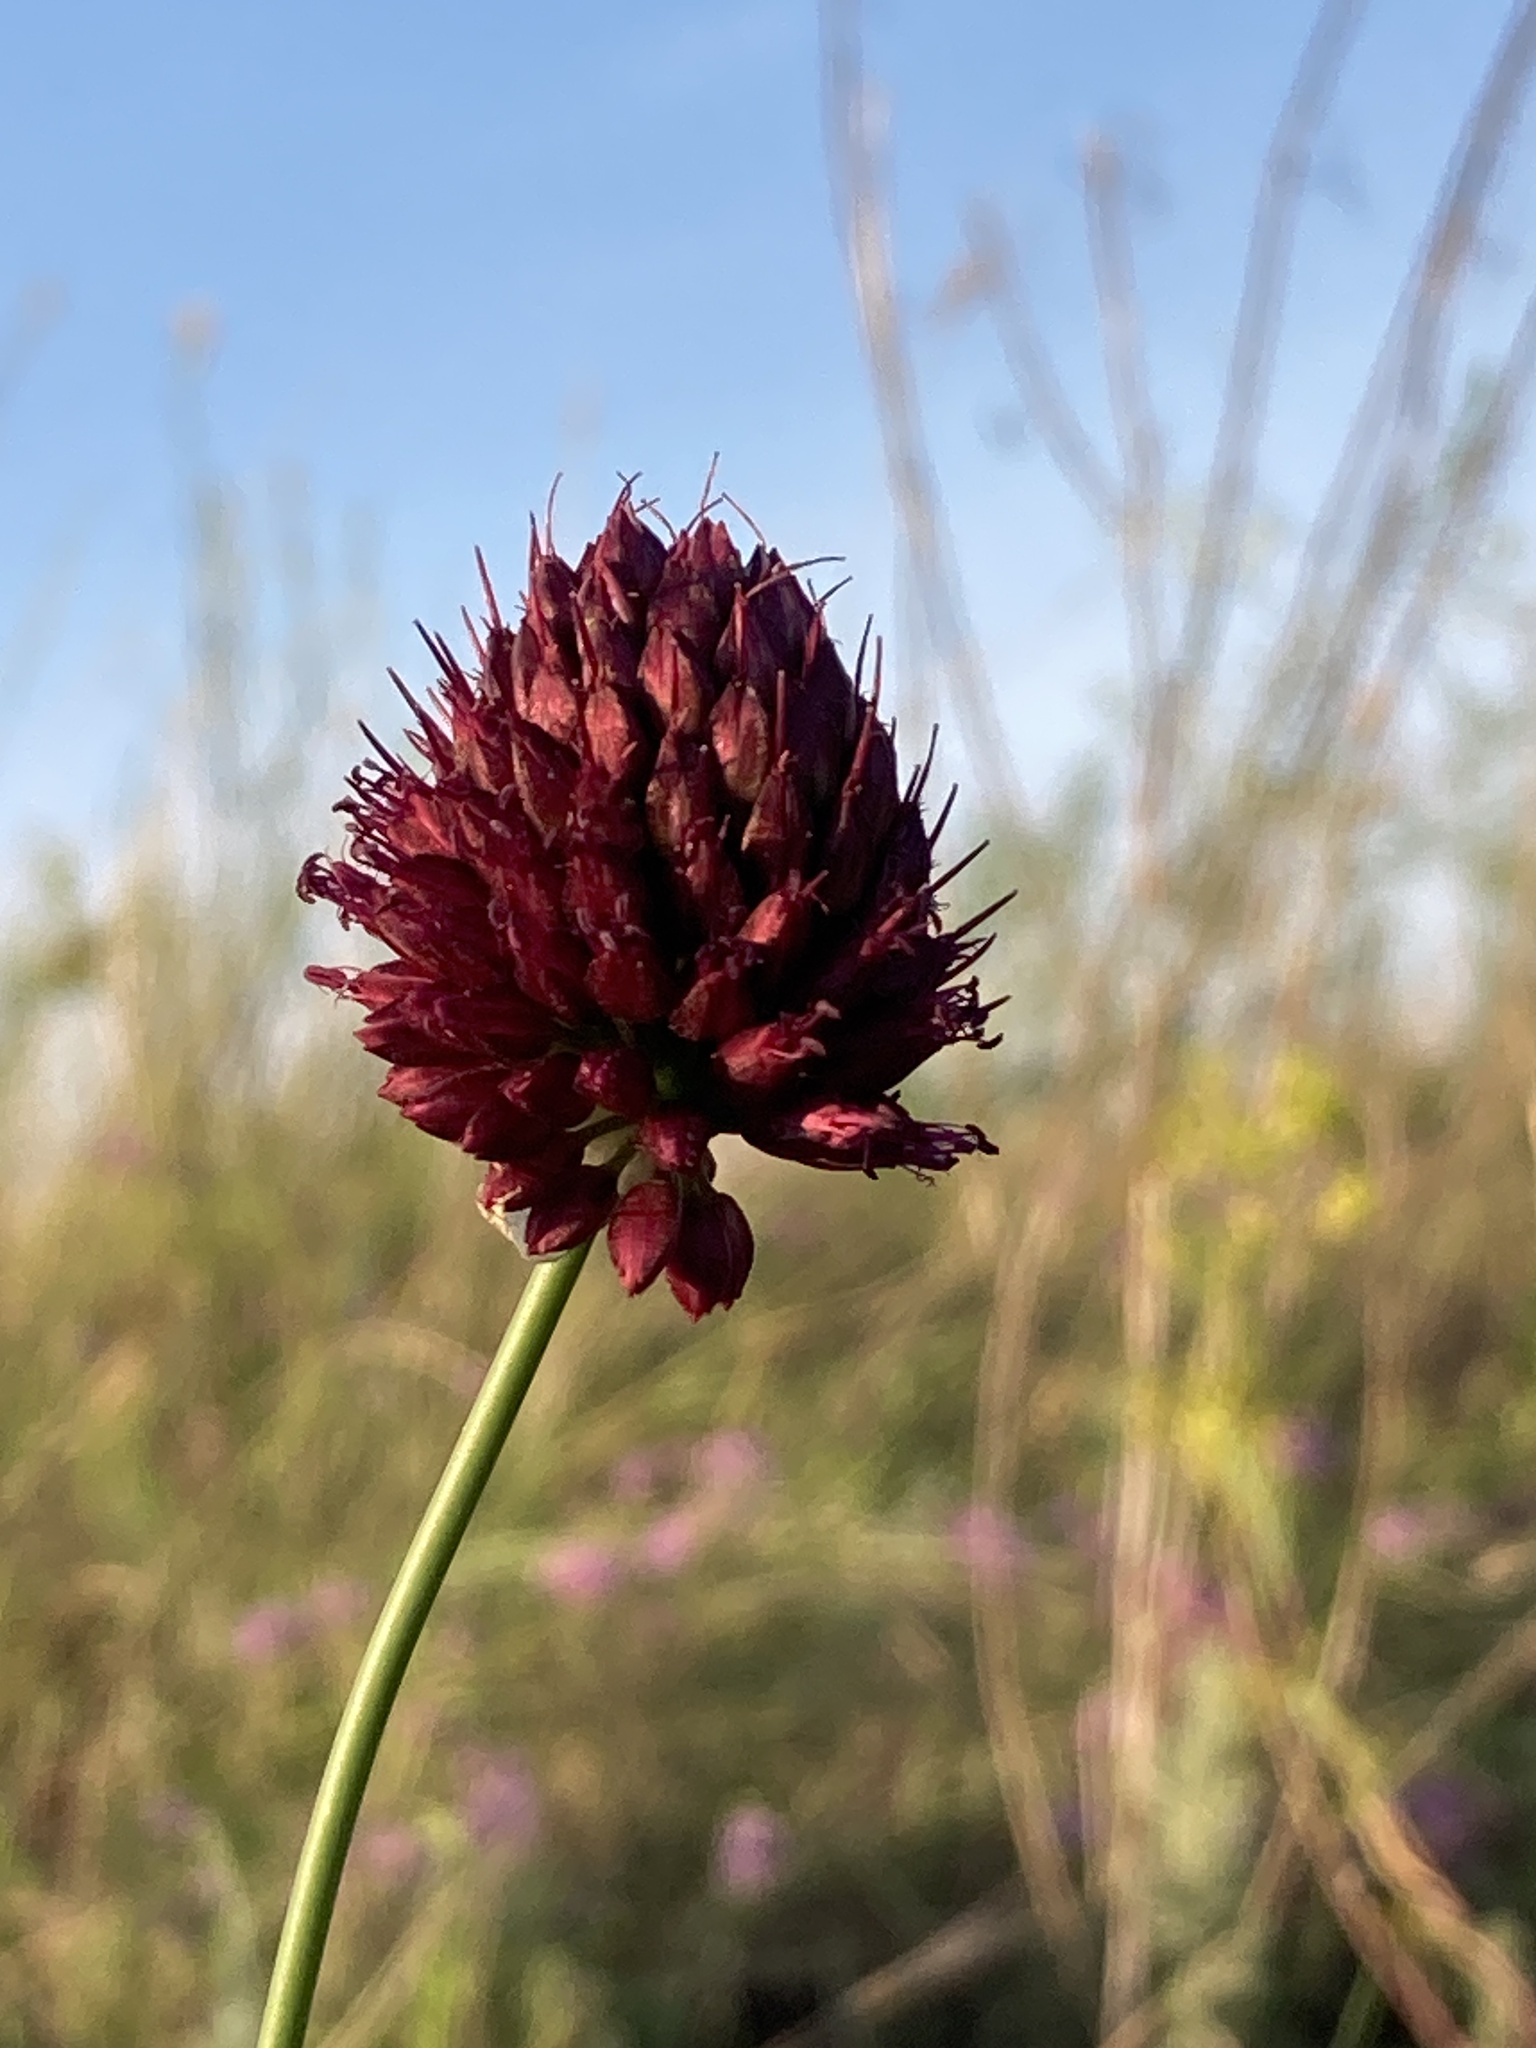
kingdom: Plantae
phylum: Tracheophyta
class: Liliopsida
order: Asparagales
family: Amaryllidaceae
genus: Allium
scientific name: Allium sphaerocephalon
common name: Round-headed leek
